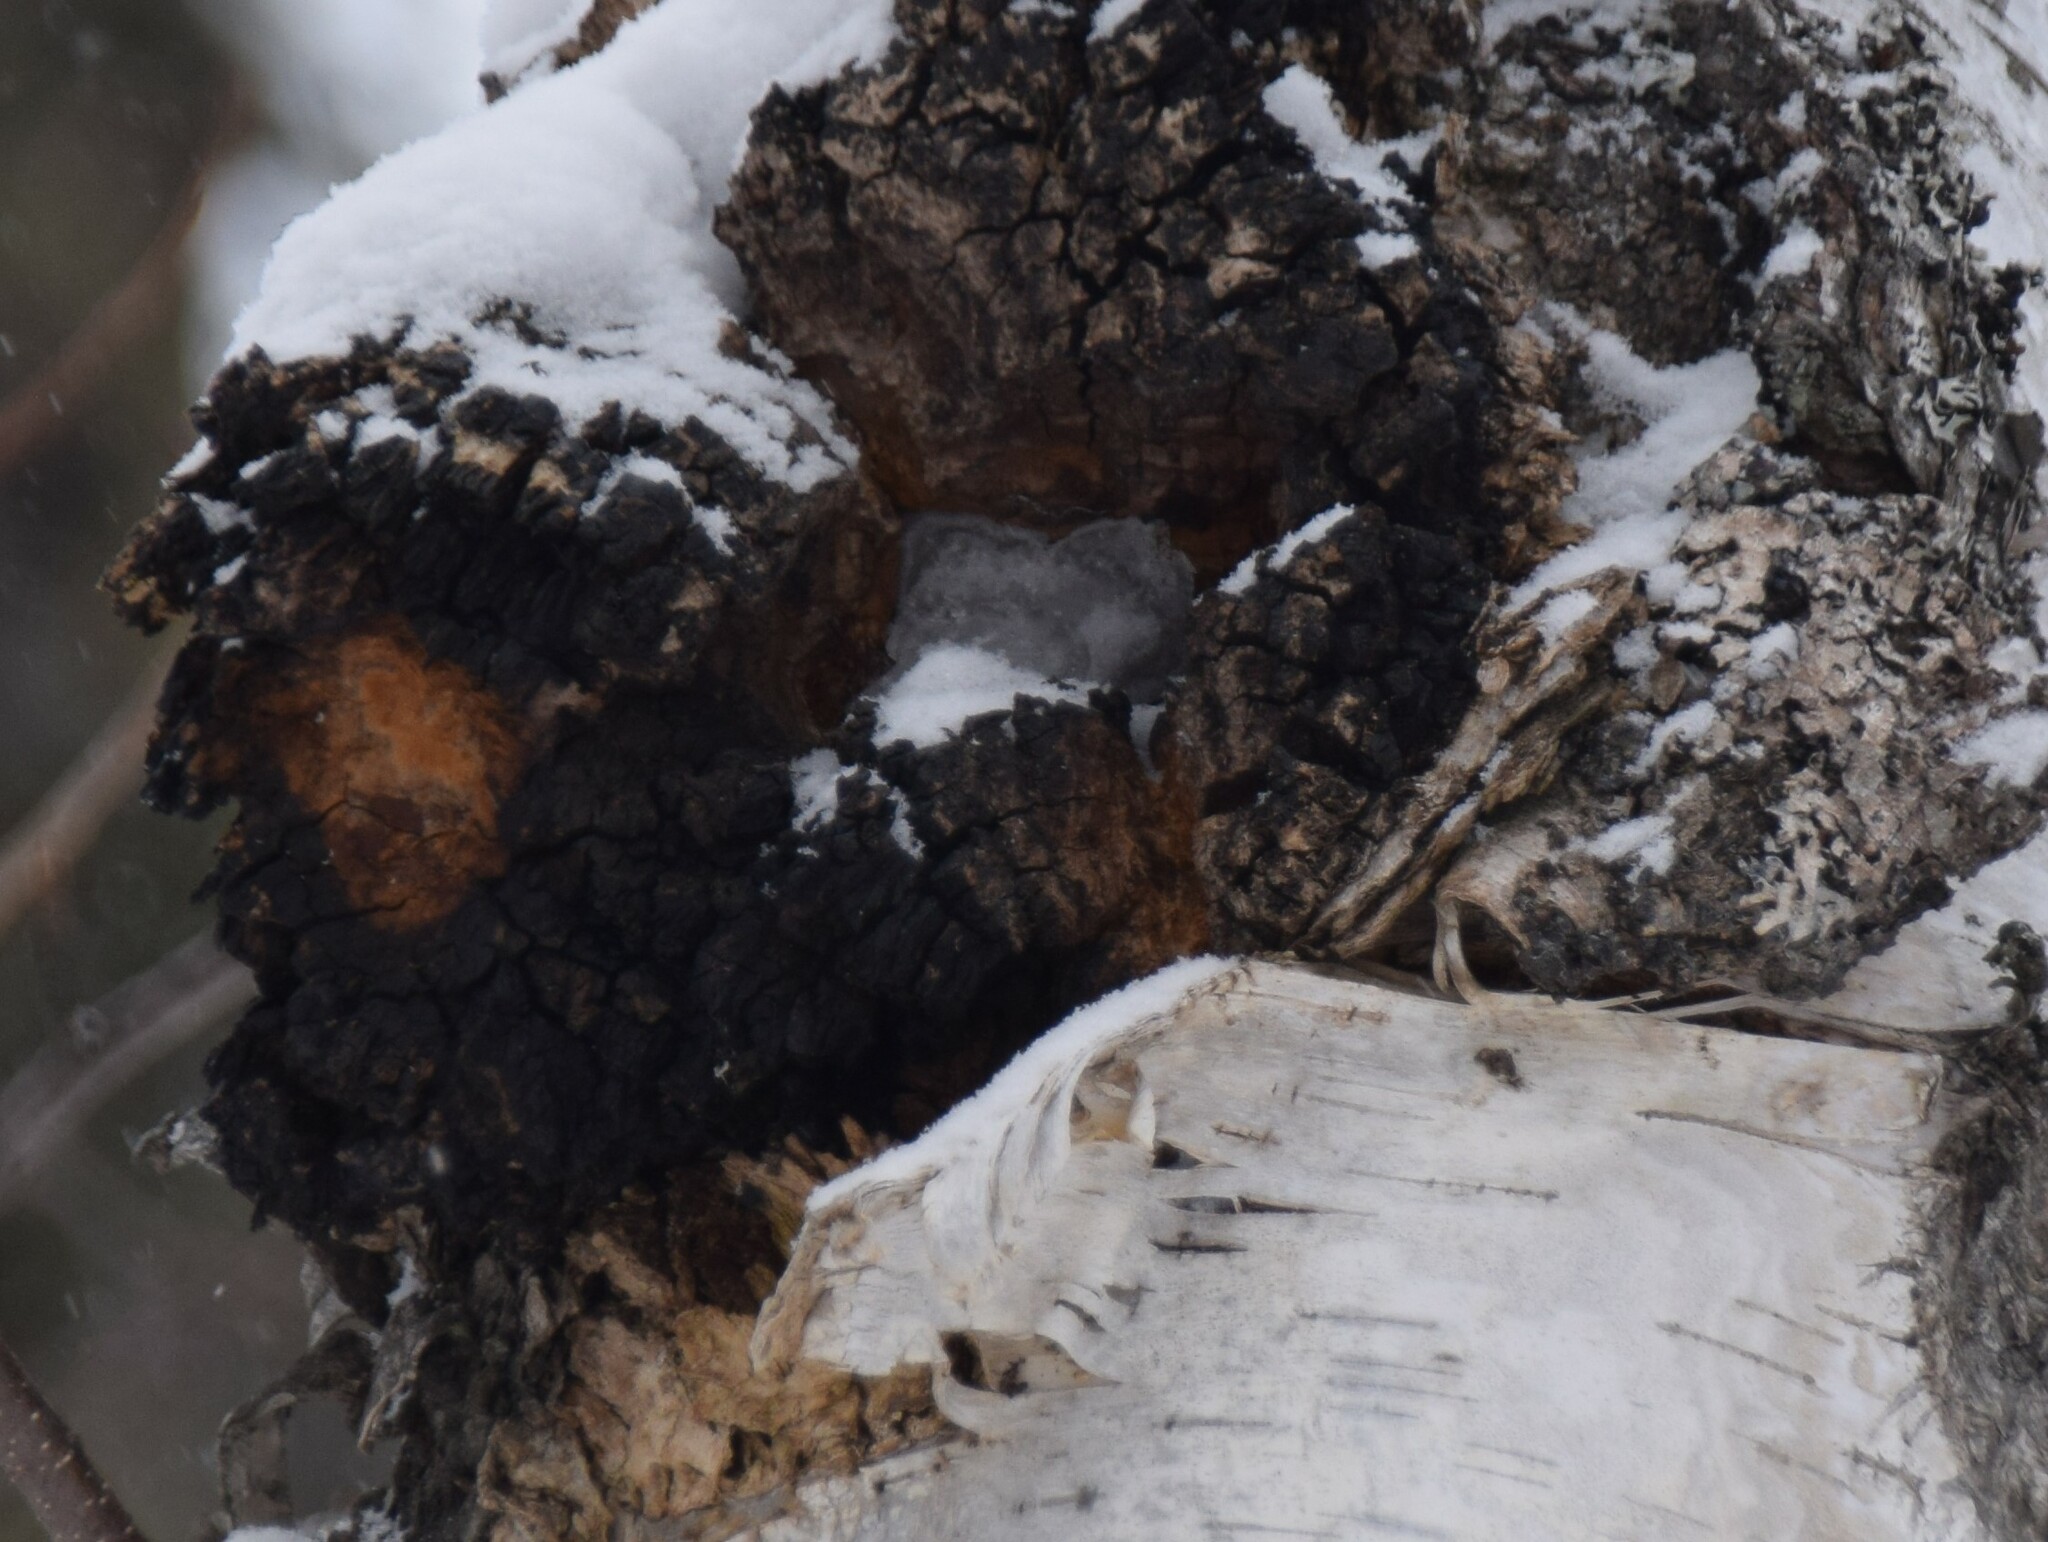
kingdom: Fungi
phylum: Basidiomycota
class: Agaricomycetes
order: Hymenochaetales
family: Hymenochaetaceae
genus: Inonotus
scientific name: Inonotus obliquus
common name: Chaga
